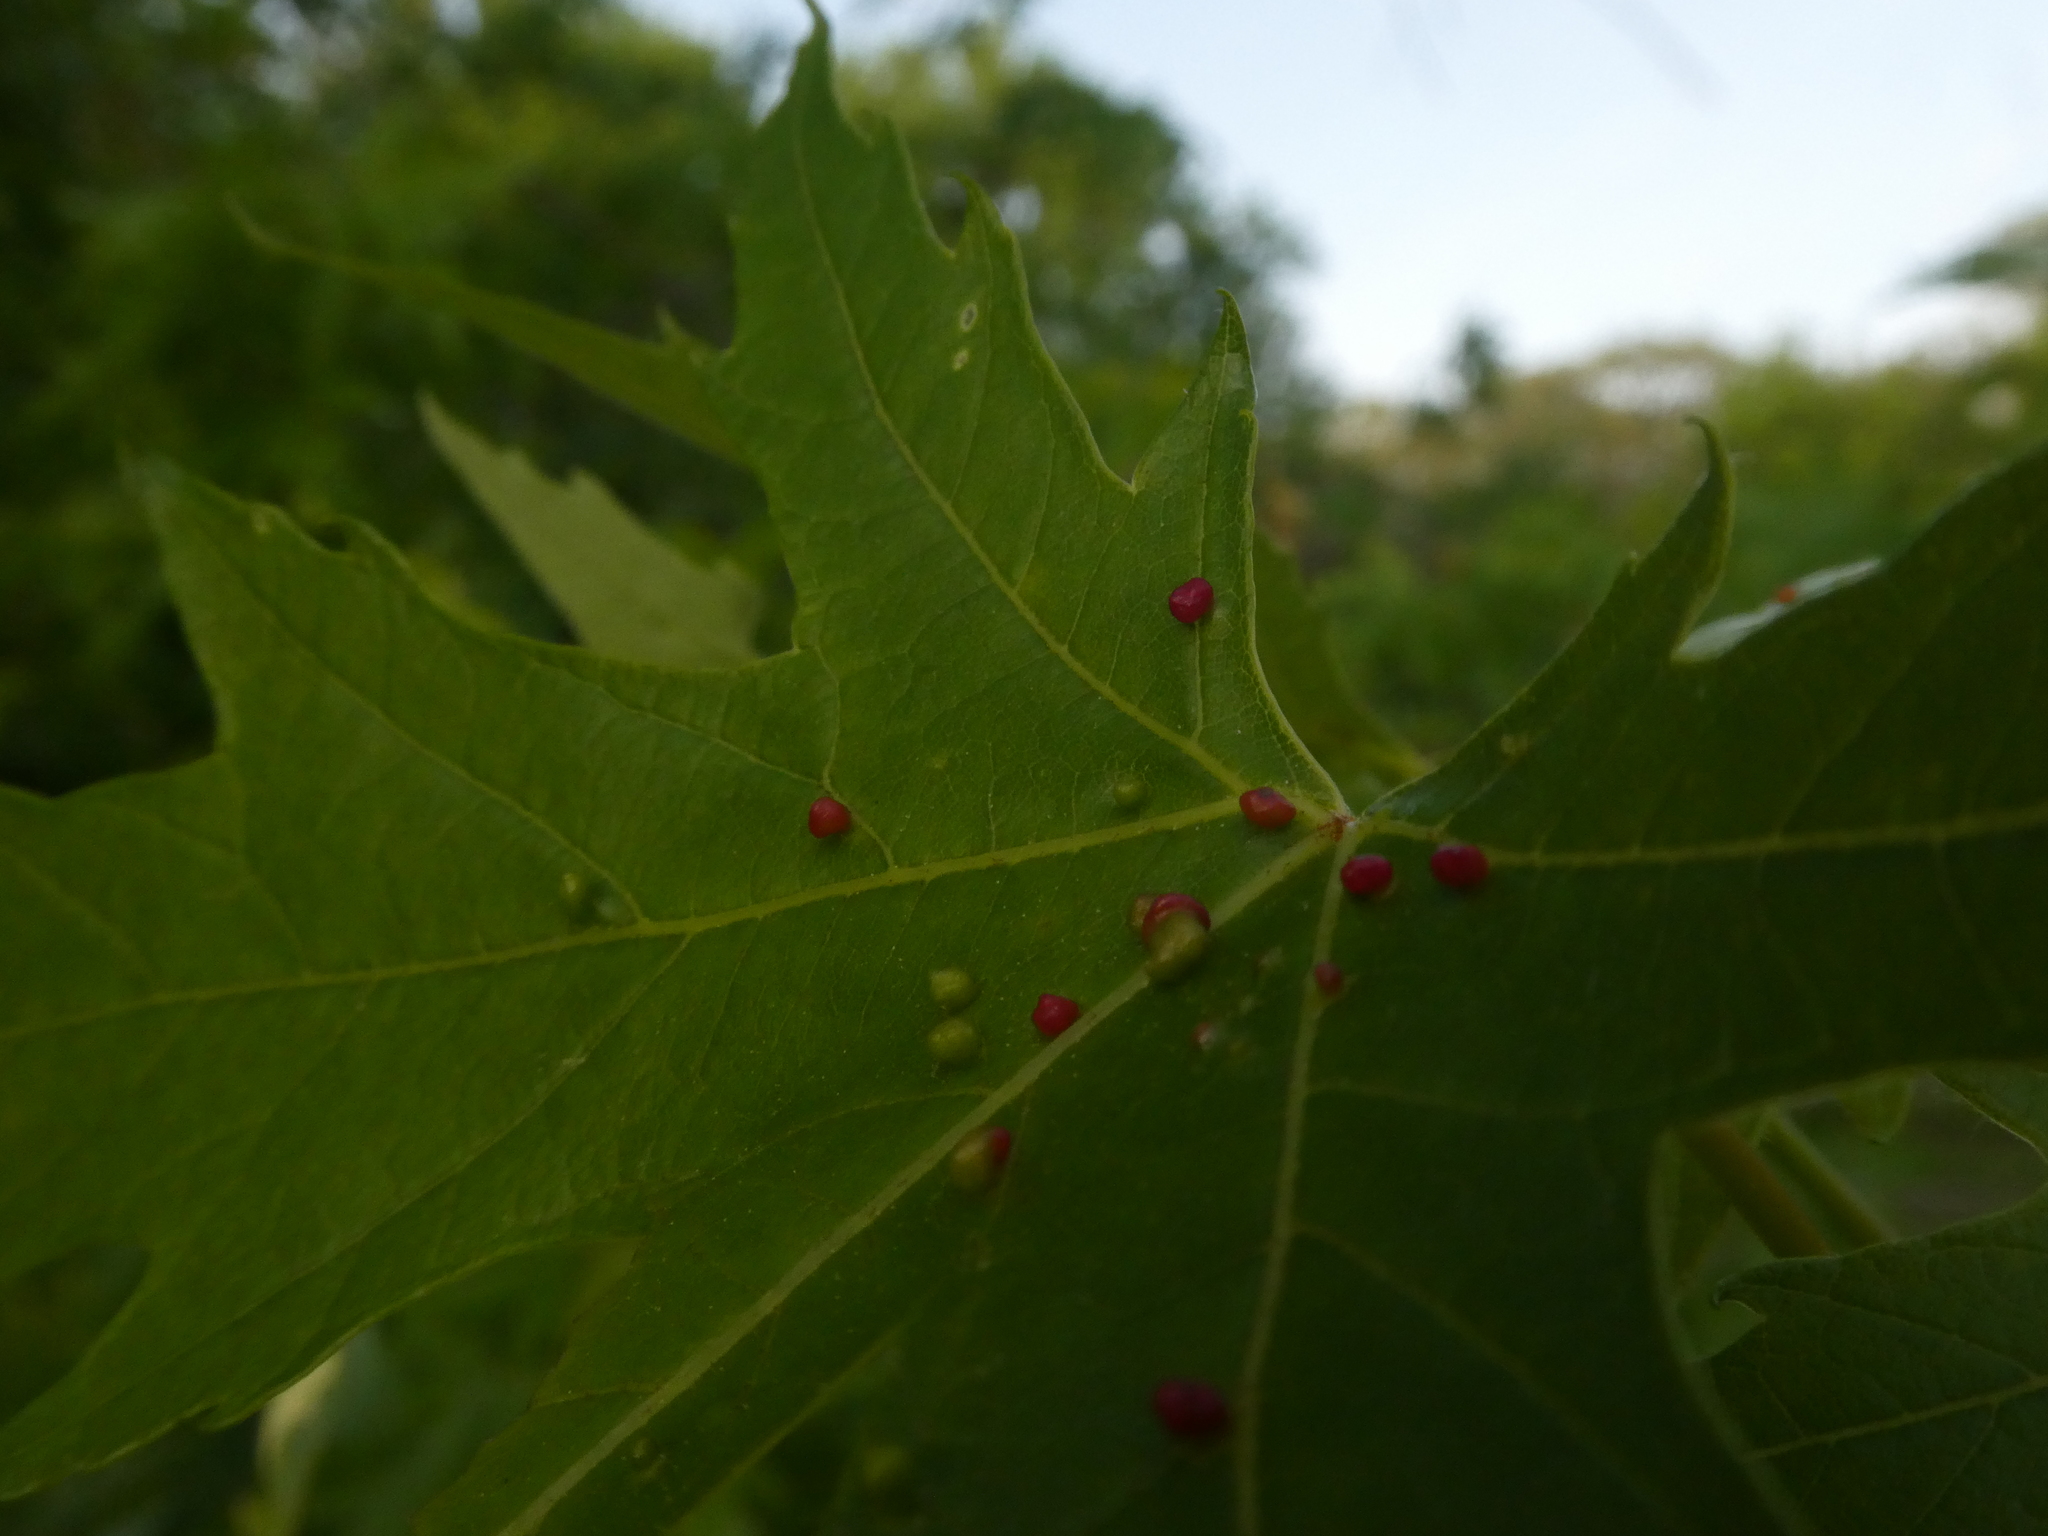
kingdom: Animalia
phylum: Arthropoda
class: Arachnida
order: Trombidiformes
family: Eriophyidae
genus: Vasates
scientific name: Vasates quadripedes
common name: Maple bladder gall mite
